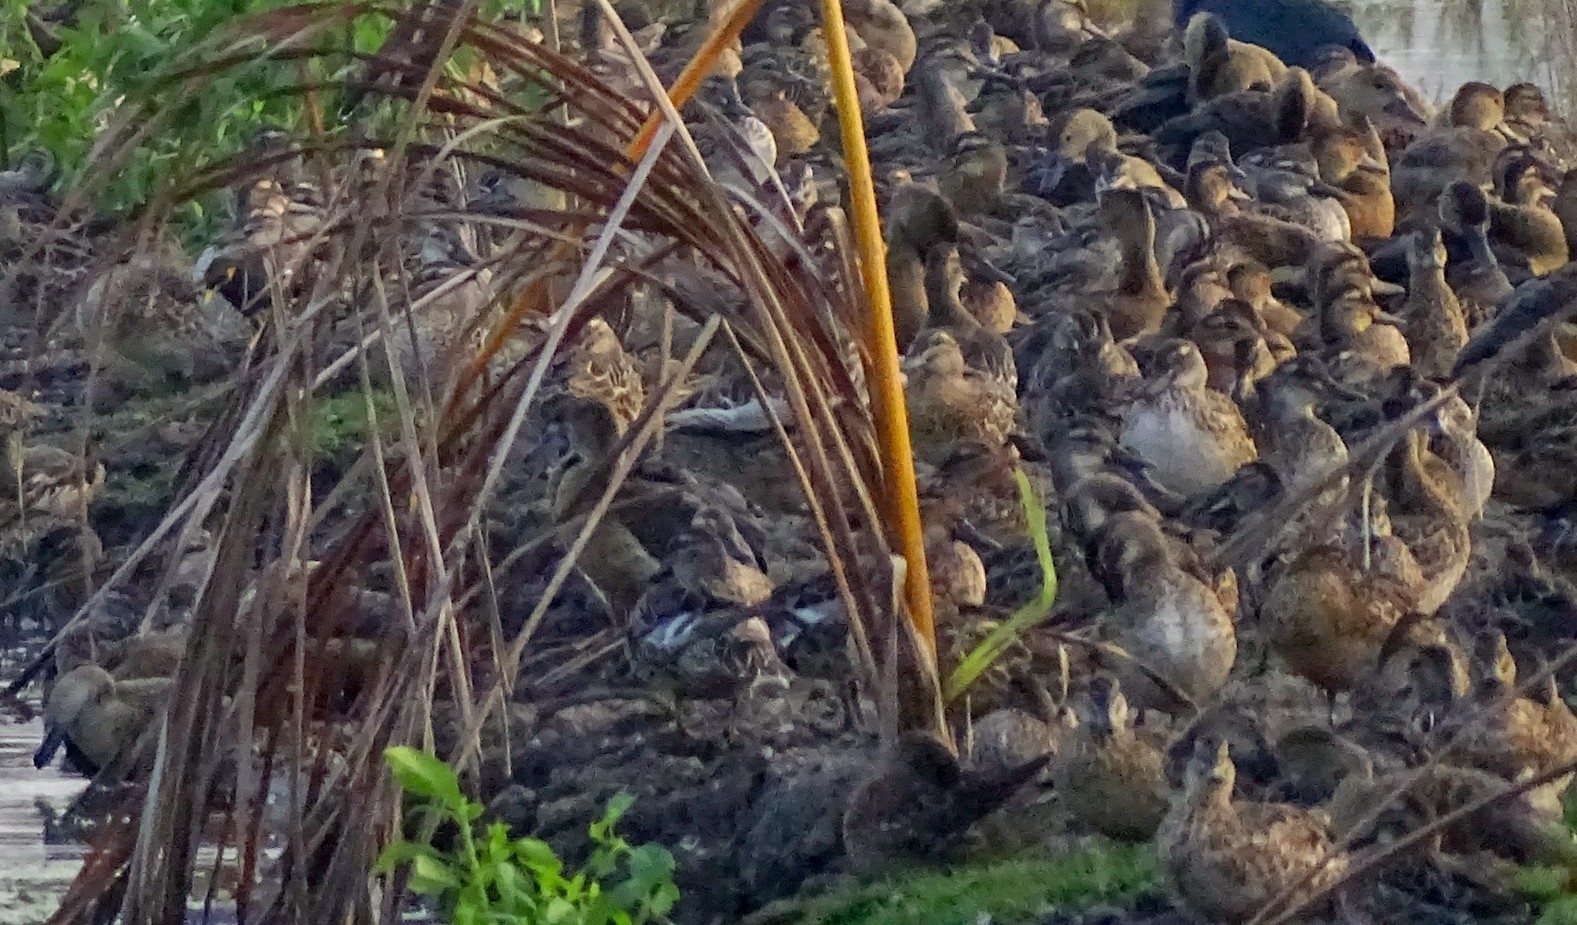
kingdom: Animalia
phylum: Chordata
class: Aves
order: Anseriformes
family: Anatidae
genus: Spatula
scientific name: Spatula querquedula
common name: Garganey
